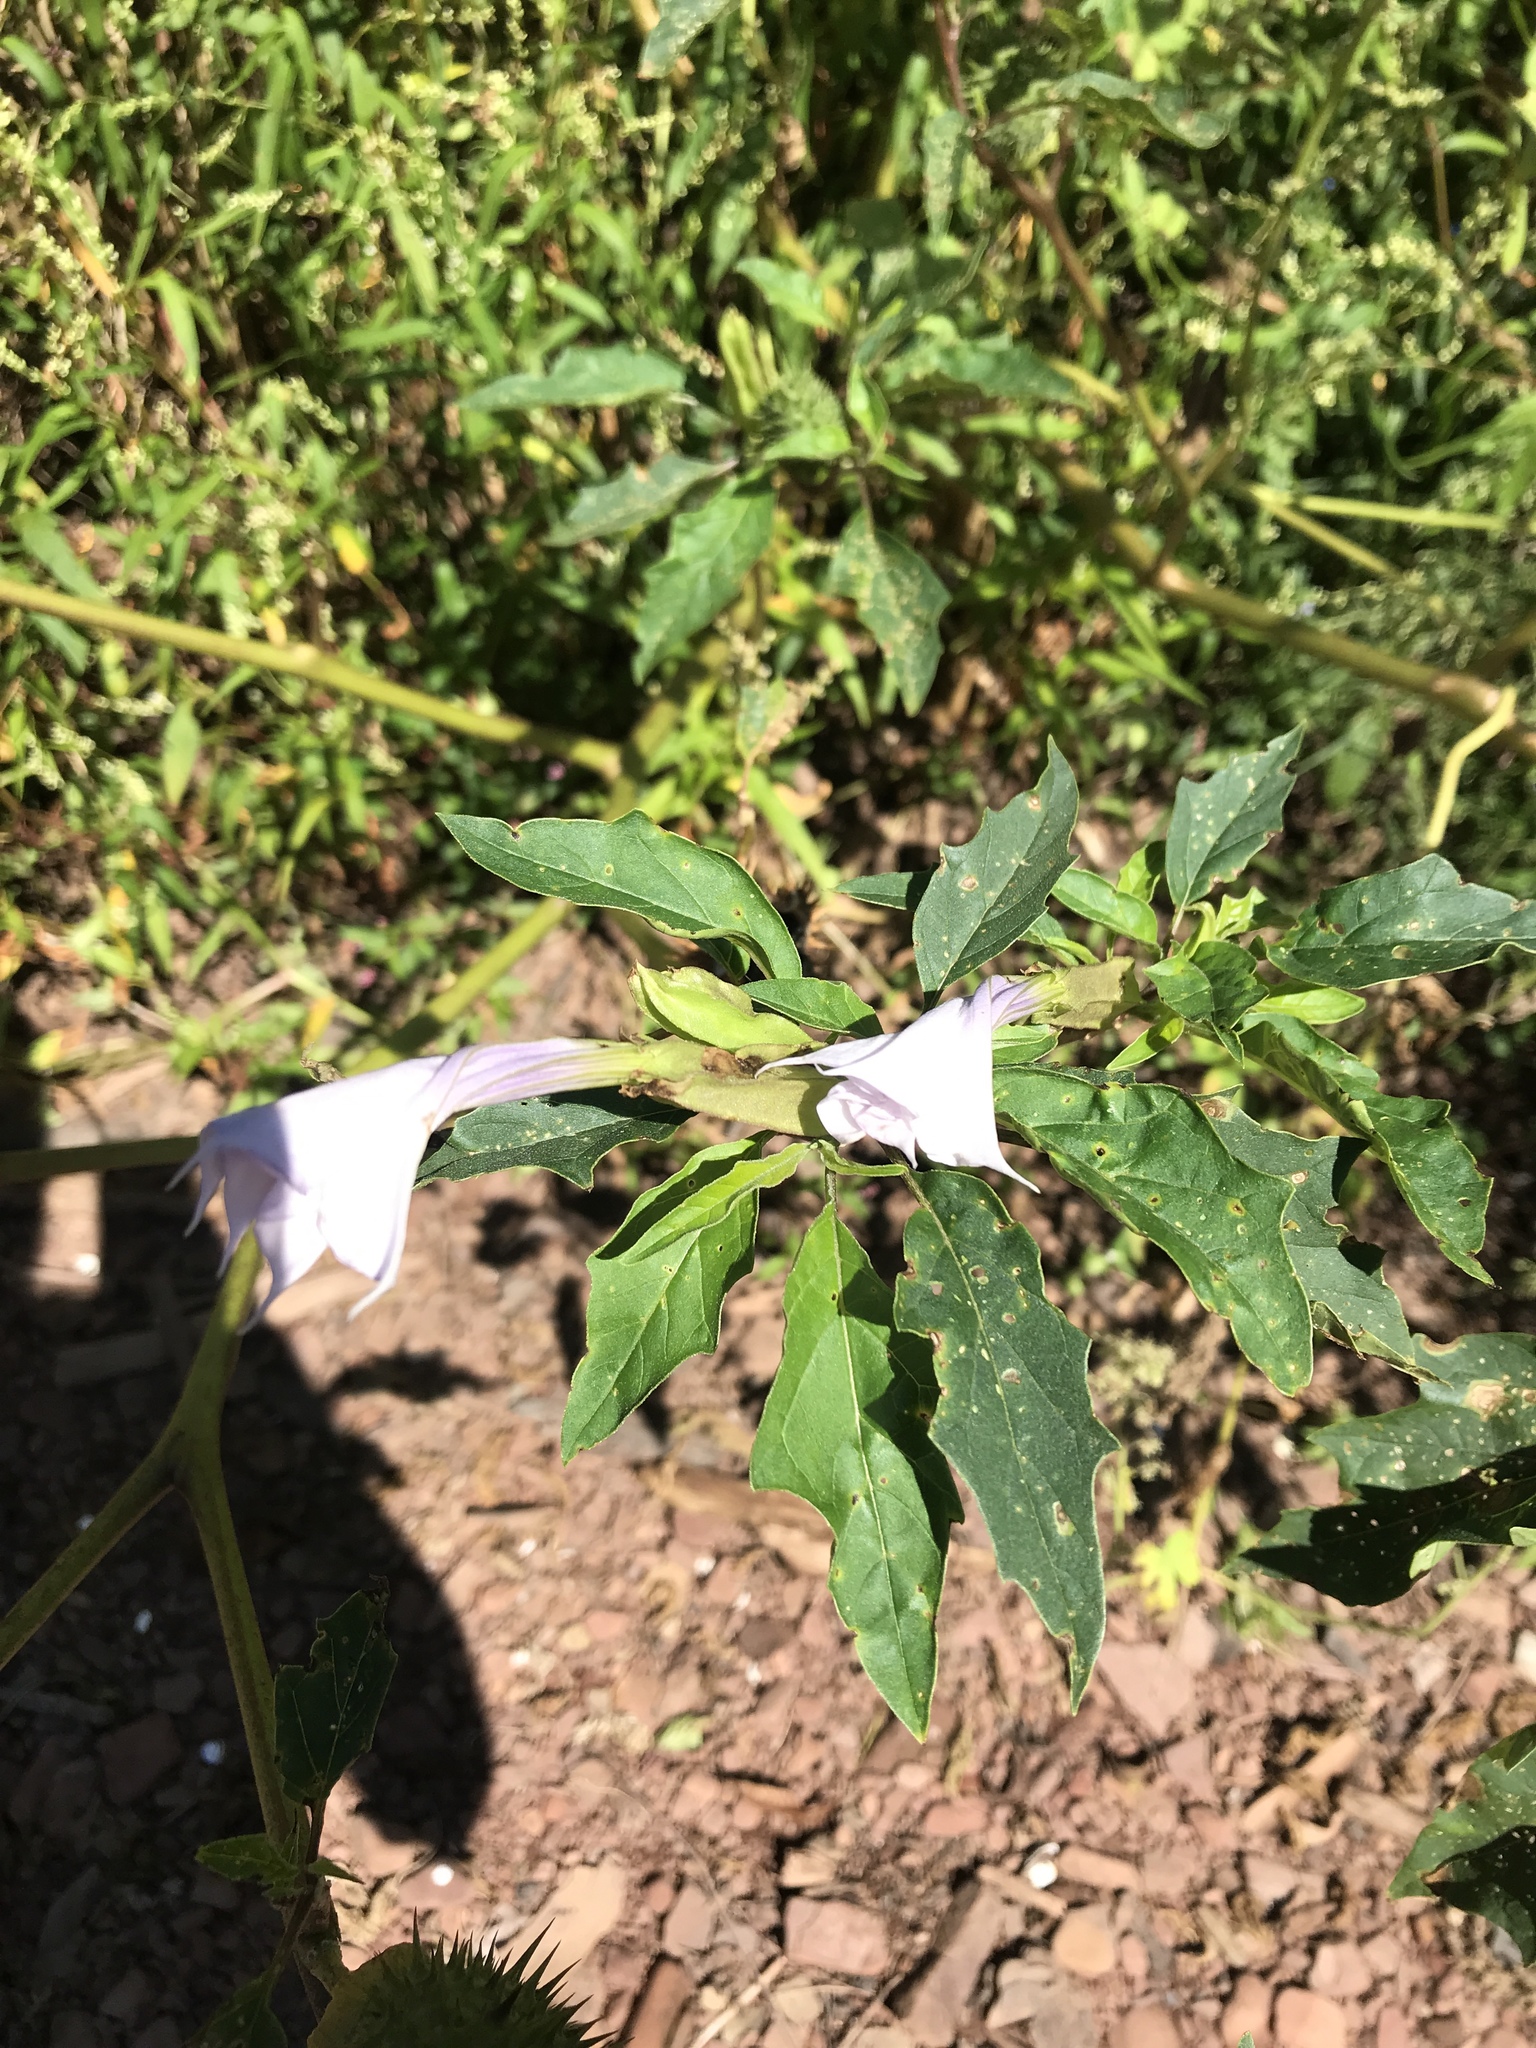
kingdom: Plantae
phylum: Tracheophyta
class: Magnoliopsida
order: Solanales
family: Solanaceae
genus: Datura
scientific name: Datura stramonium
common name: Thorn-apple
